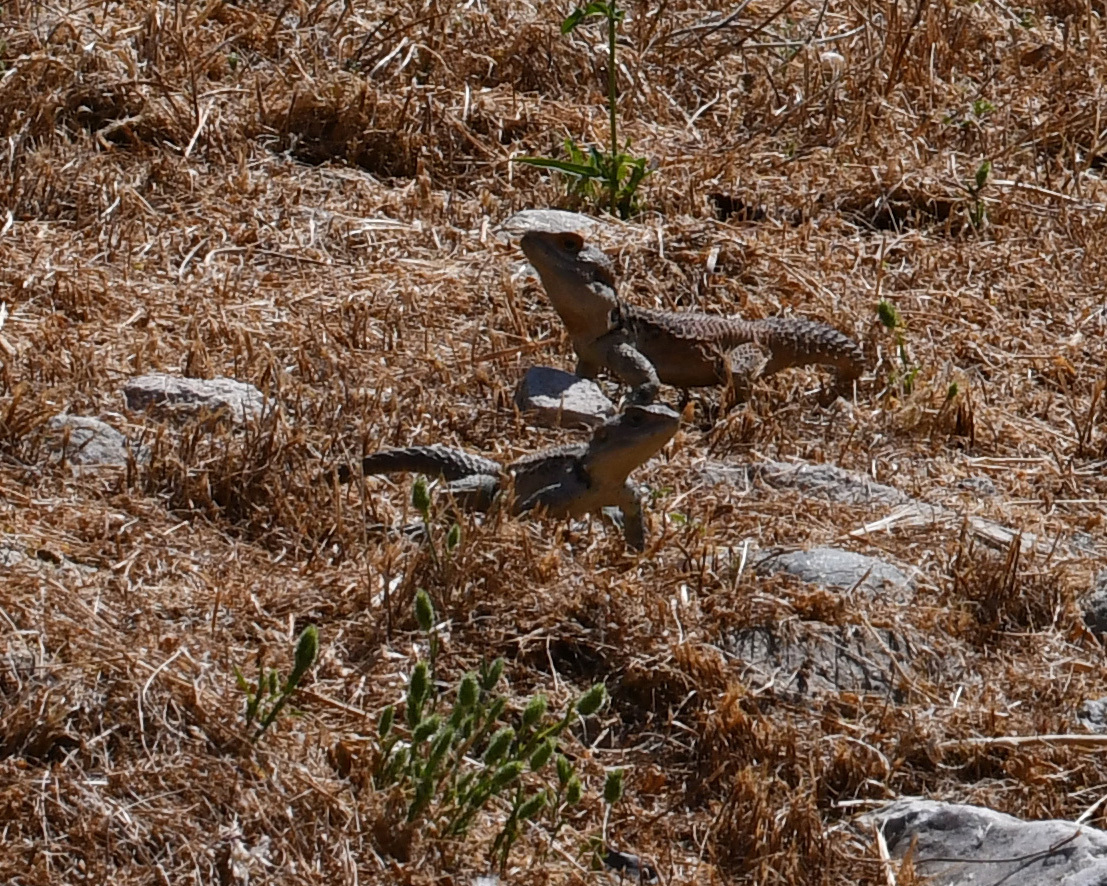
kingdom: Animalia
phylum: Chordata
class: Squamata
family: Agamidae
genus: Laudakia
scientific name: Laudakia
